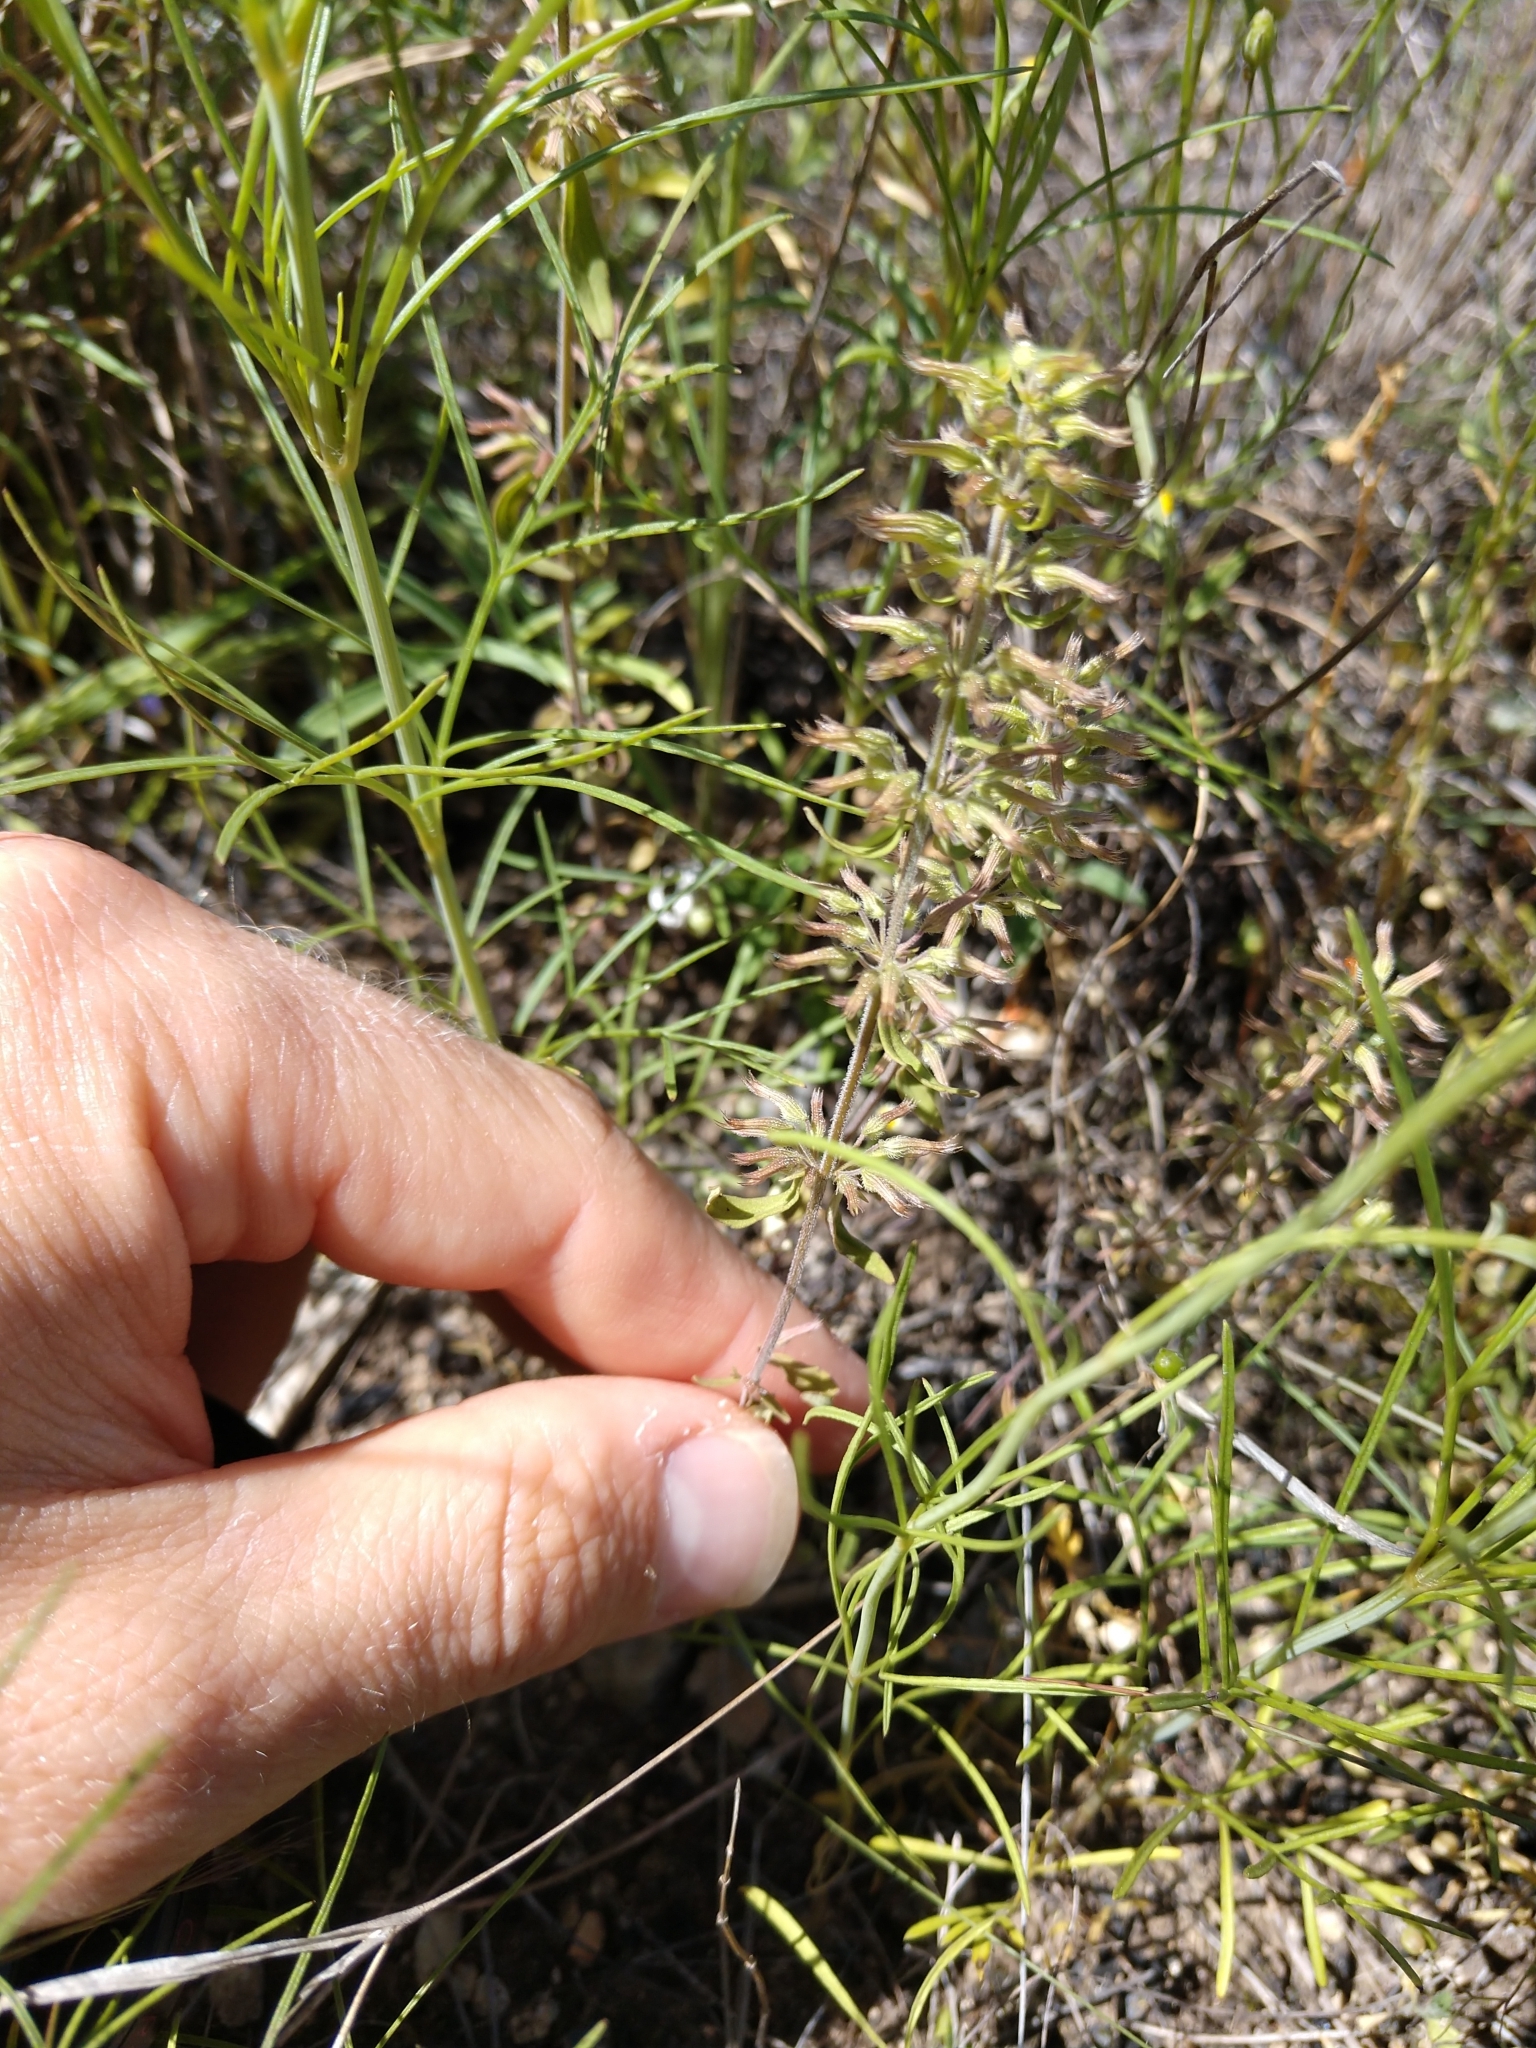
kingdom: Plantae
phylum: Tracheophyta
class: Magnoliopsida
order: Lamiales
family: Lamiaceae
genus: Hedeoma
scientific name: Hedeoma acinoides
